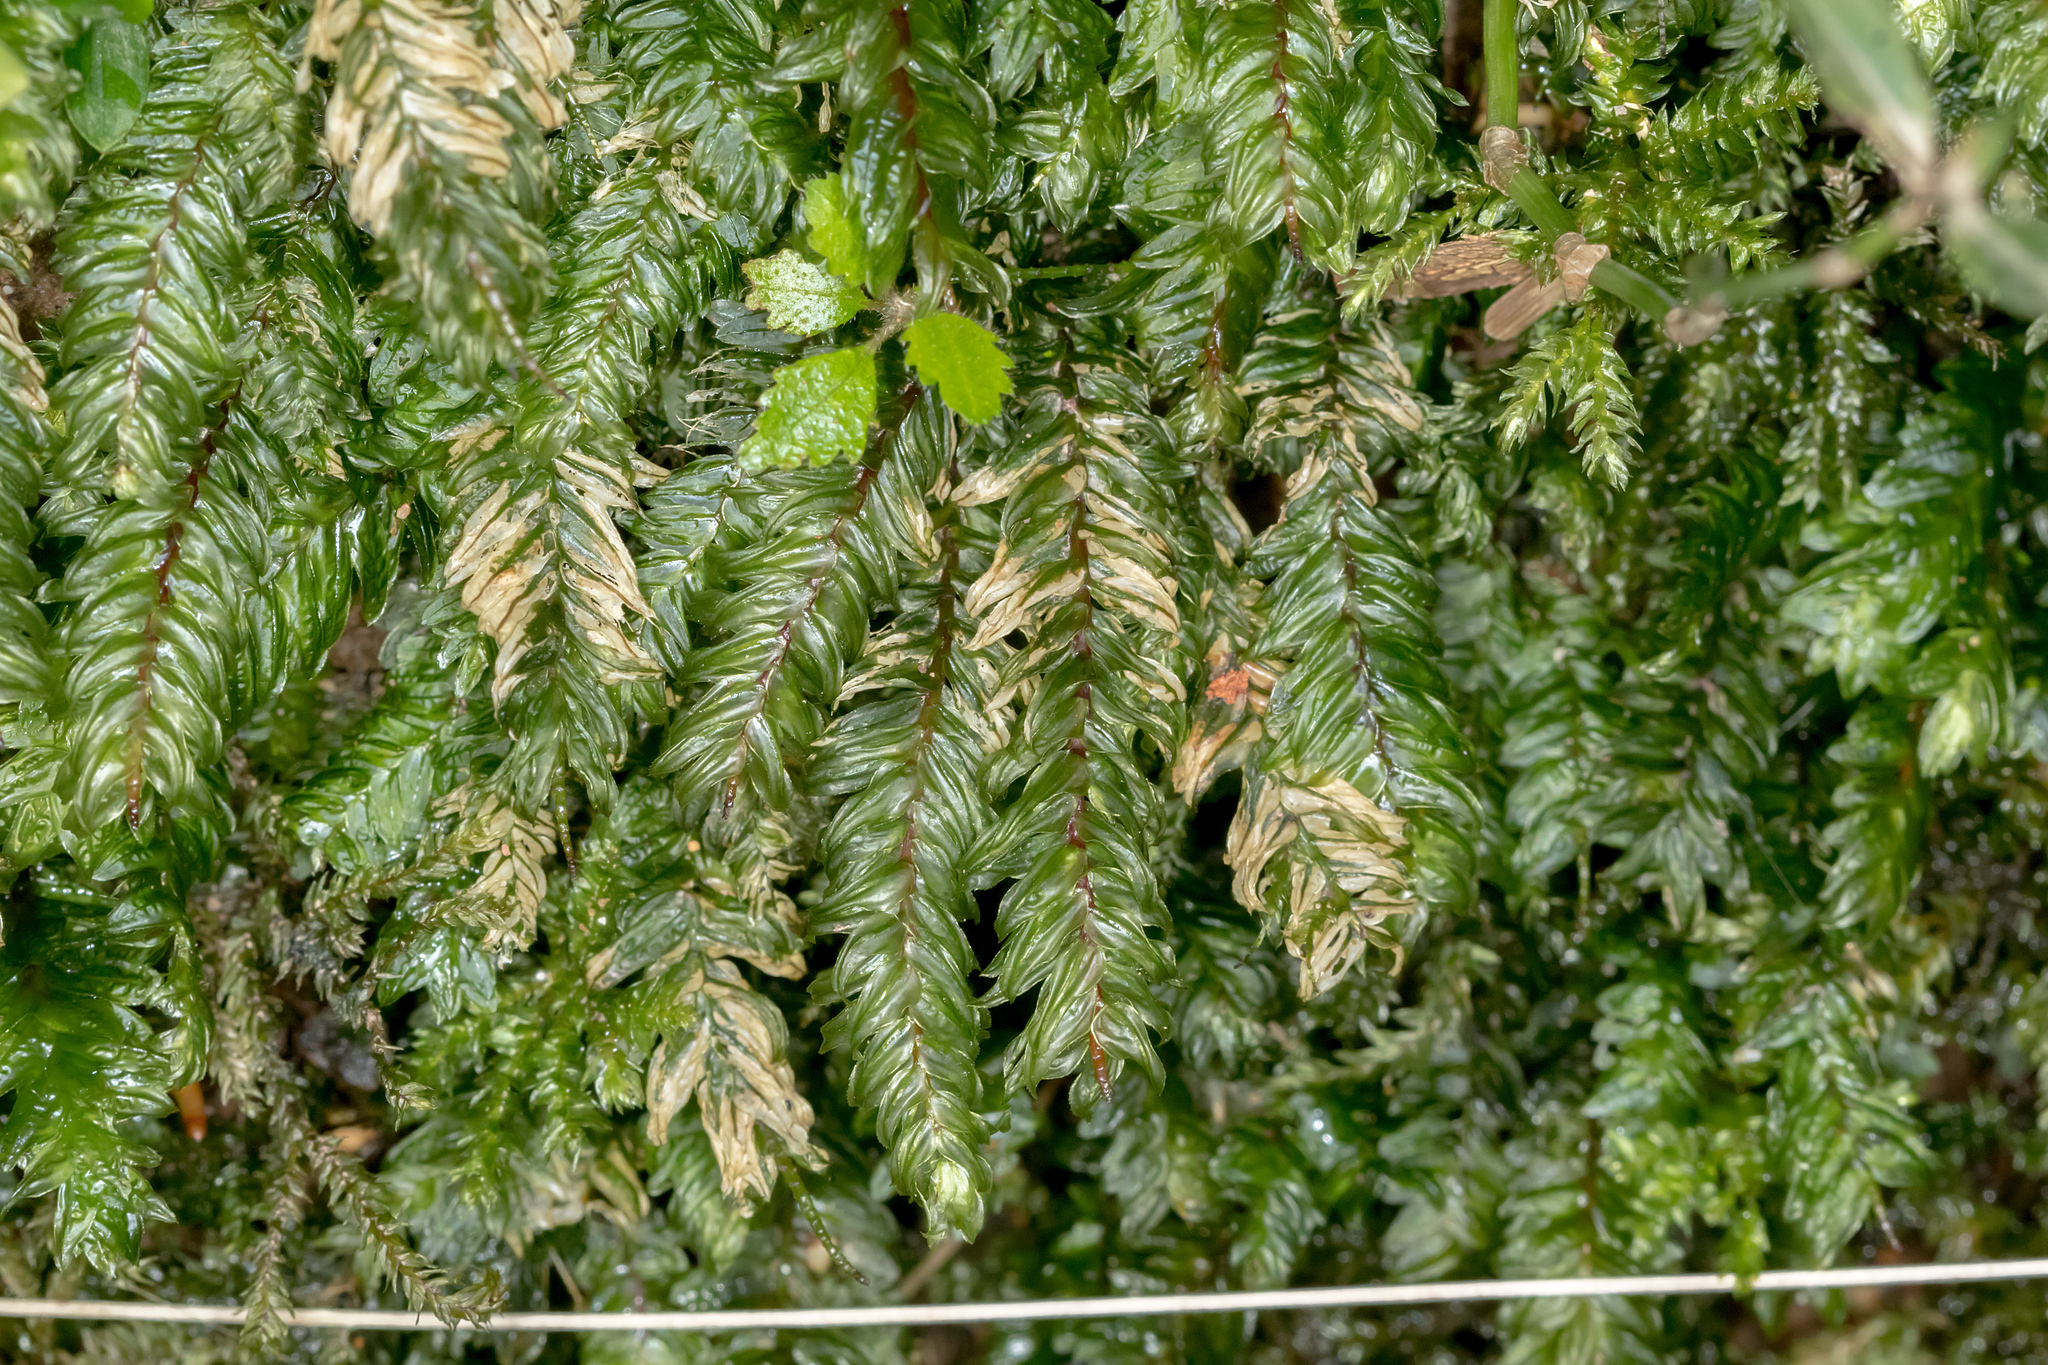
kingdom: Plantae
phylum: Bryophyta
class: Bryopsida
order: Aulacomniales
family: Aulacomniaceae
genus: Mesochaete
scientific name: Mesochaete undulata
